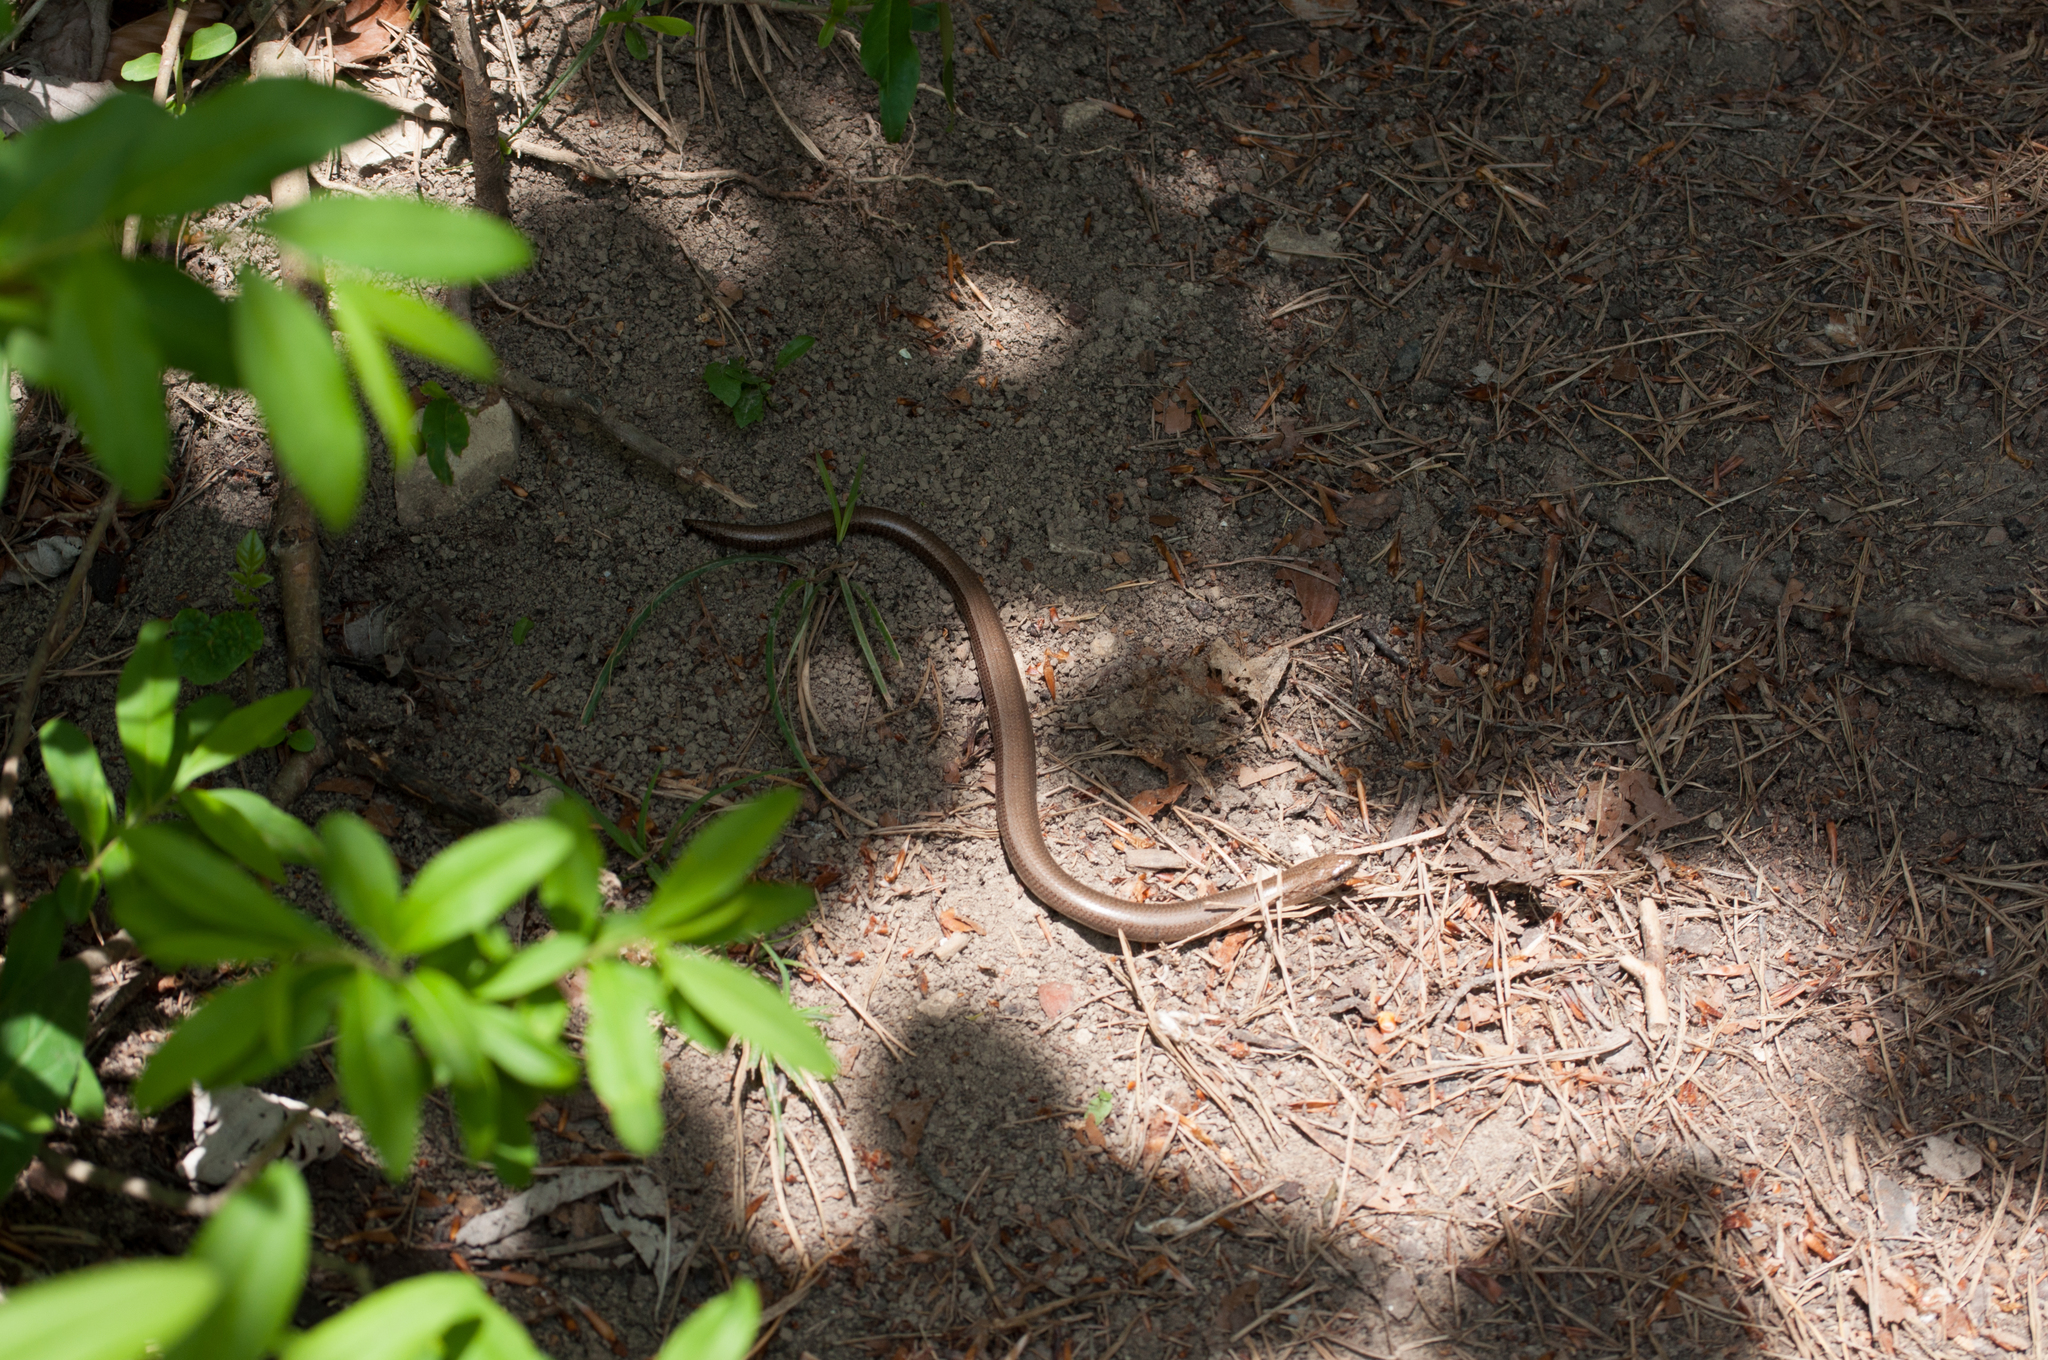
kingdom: Animalia
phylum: Chordata
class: Squamata
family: Anguidae
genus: Anguis
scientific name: Anguis fragilis
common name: Slow worm
